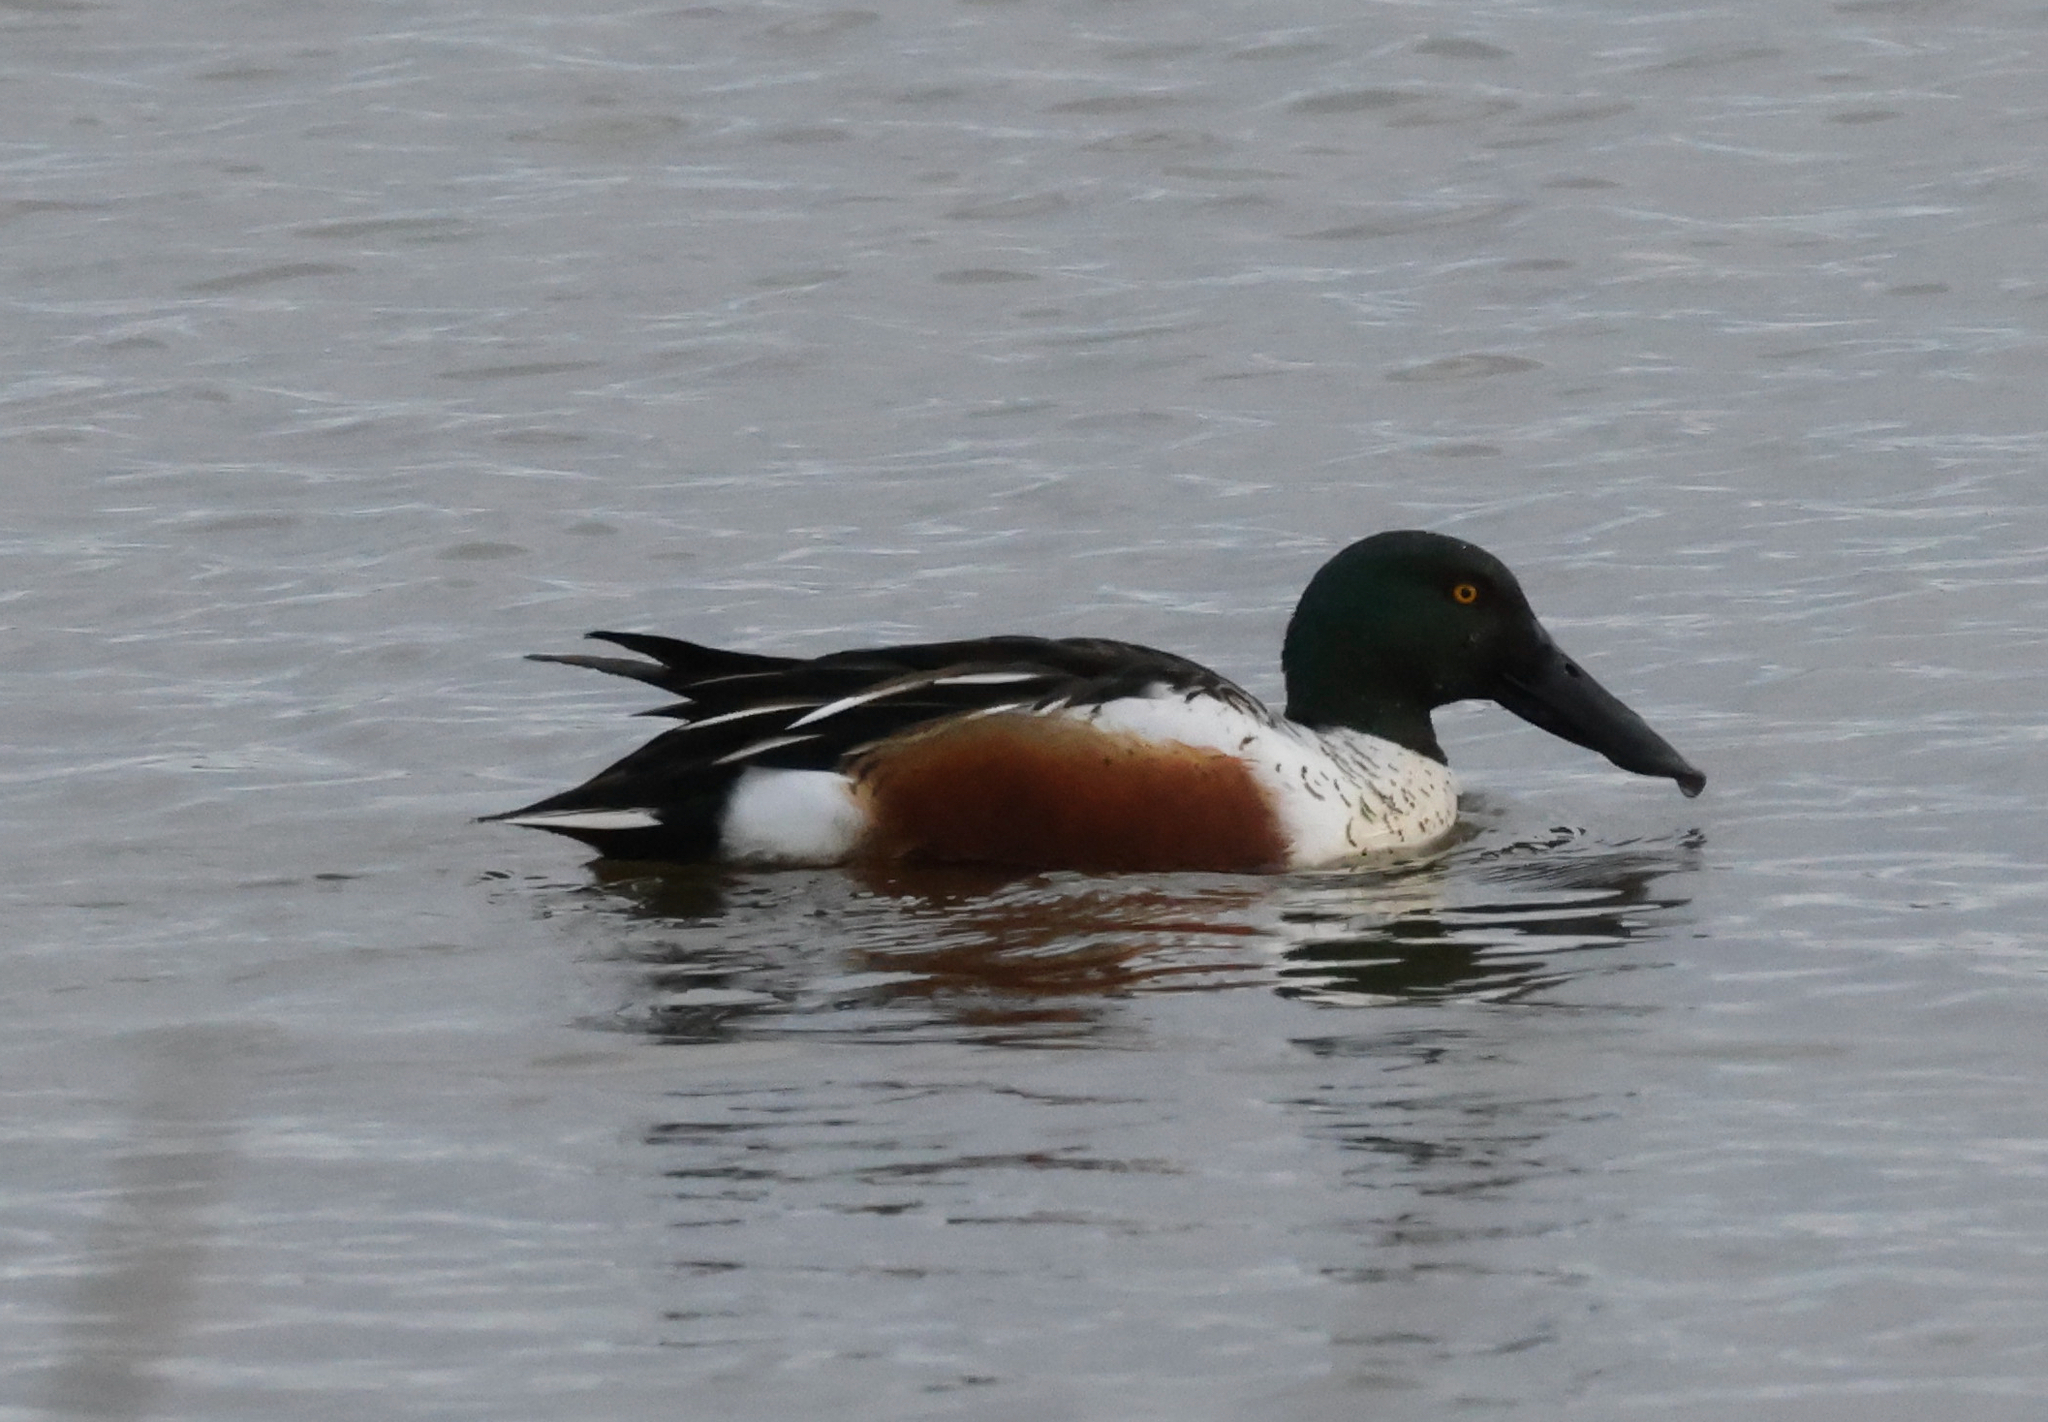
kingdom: Animalia
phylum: Chordata
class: Aves
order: Anseriformes
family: Anatidae
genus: Spatula
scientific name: Spatula clypeata
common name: Northern shoveler
